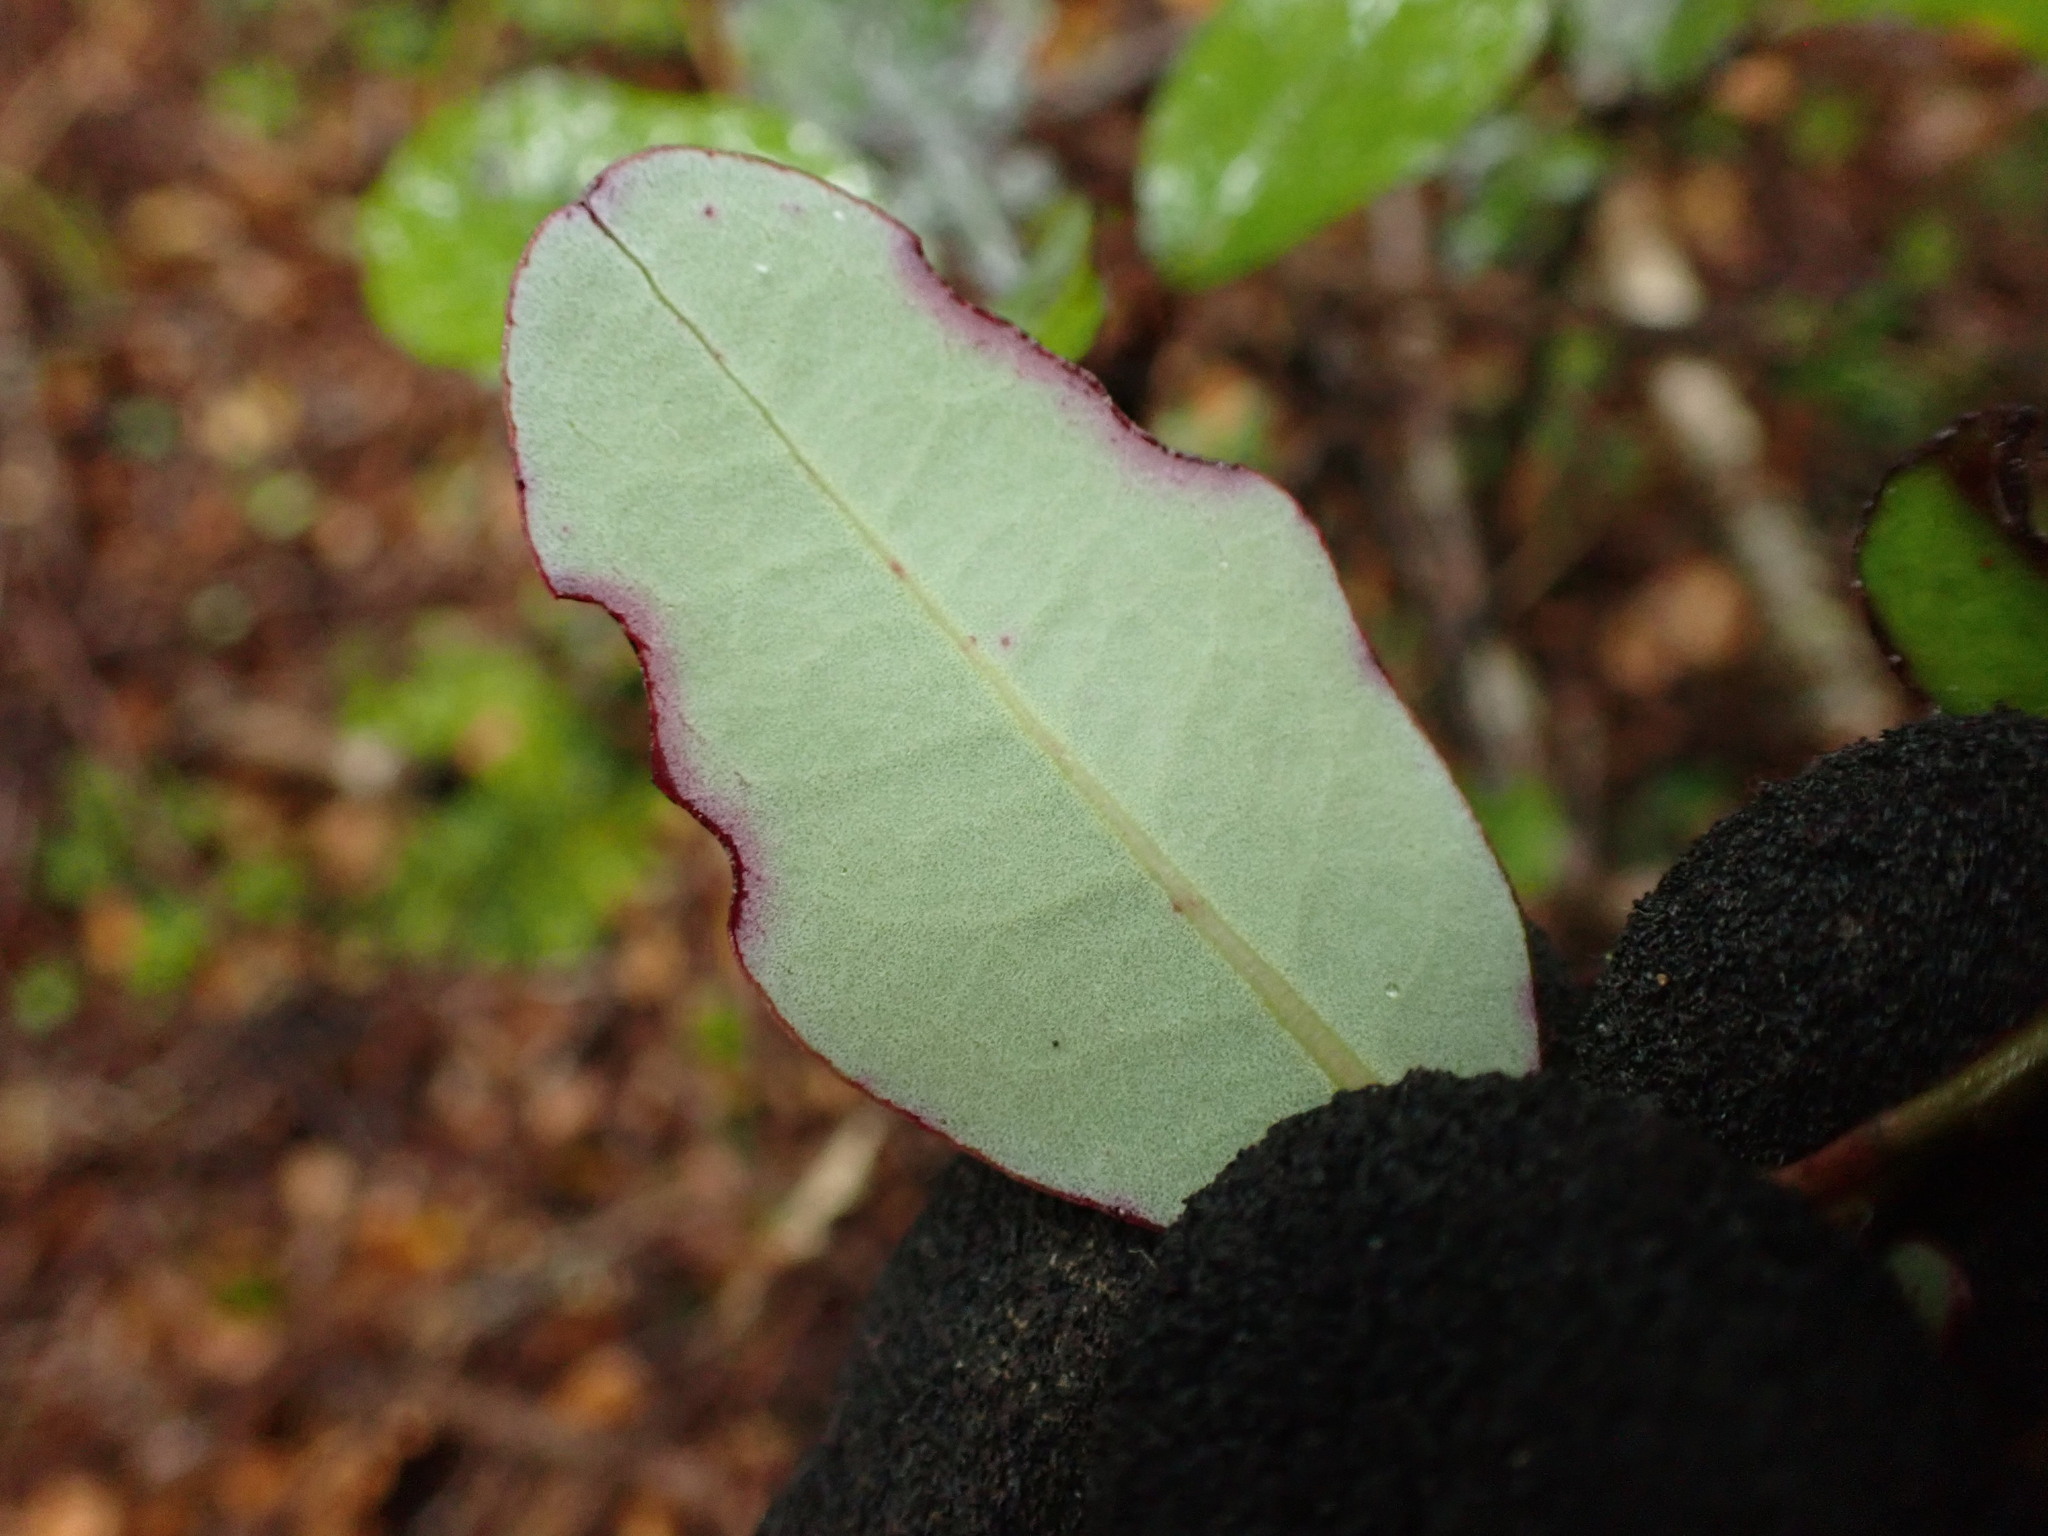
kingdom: Plantae
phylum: Tracheophyta
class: Magnoliopsida
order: Canellales
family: Winteraceae
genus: Pseudowintera
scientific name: Pseudowintera colorata
